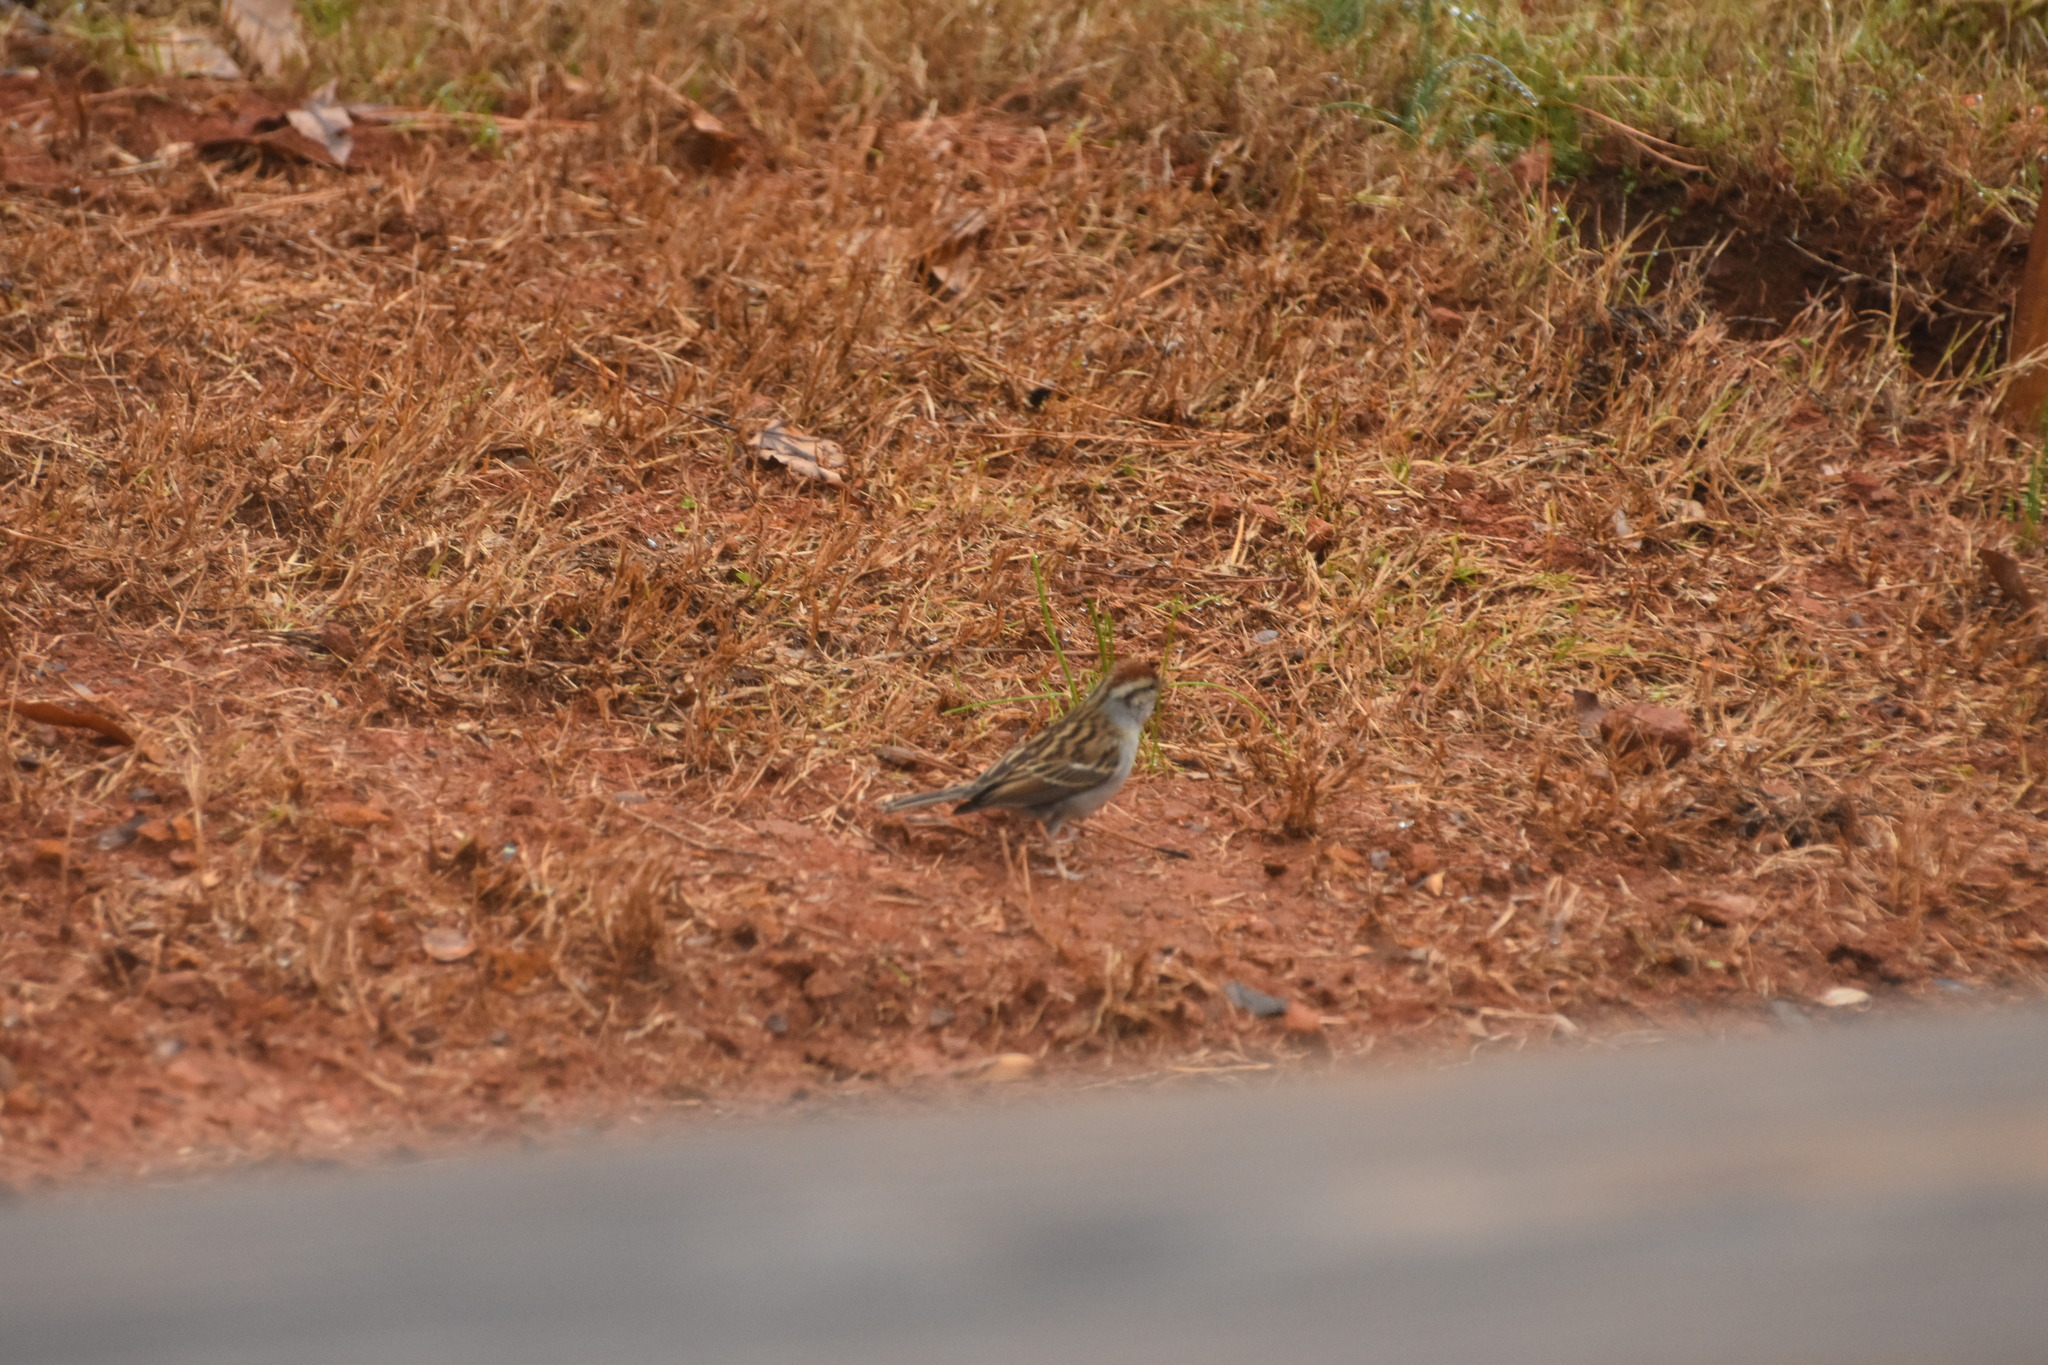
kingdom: Animalia
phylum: Chordata
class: Aves
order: Passeriformes
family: Passerellidae
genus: Spizella
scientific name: Spizella passerina
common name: Chipping sparrow
